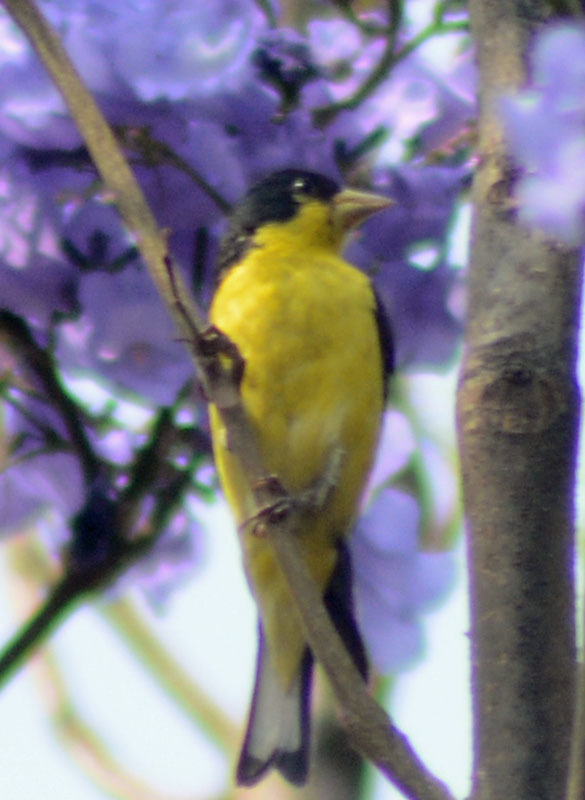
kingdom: Animalia
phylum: Chordata
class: Aves
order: Passeriformes
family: Fringillidae
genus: Spinus
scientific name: Spinus psaltria
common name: Lesser goldfinch
